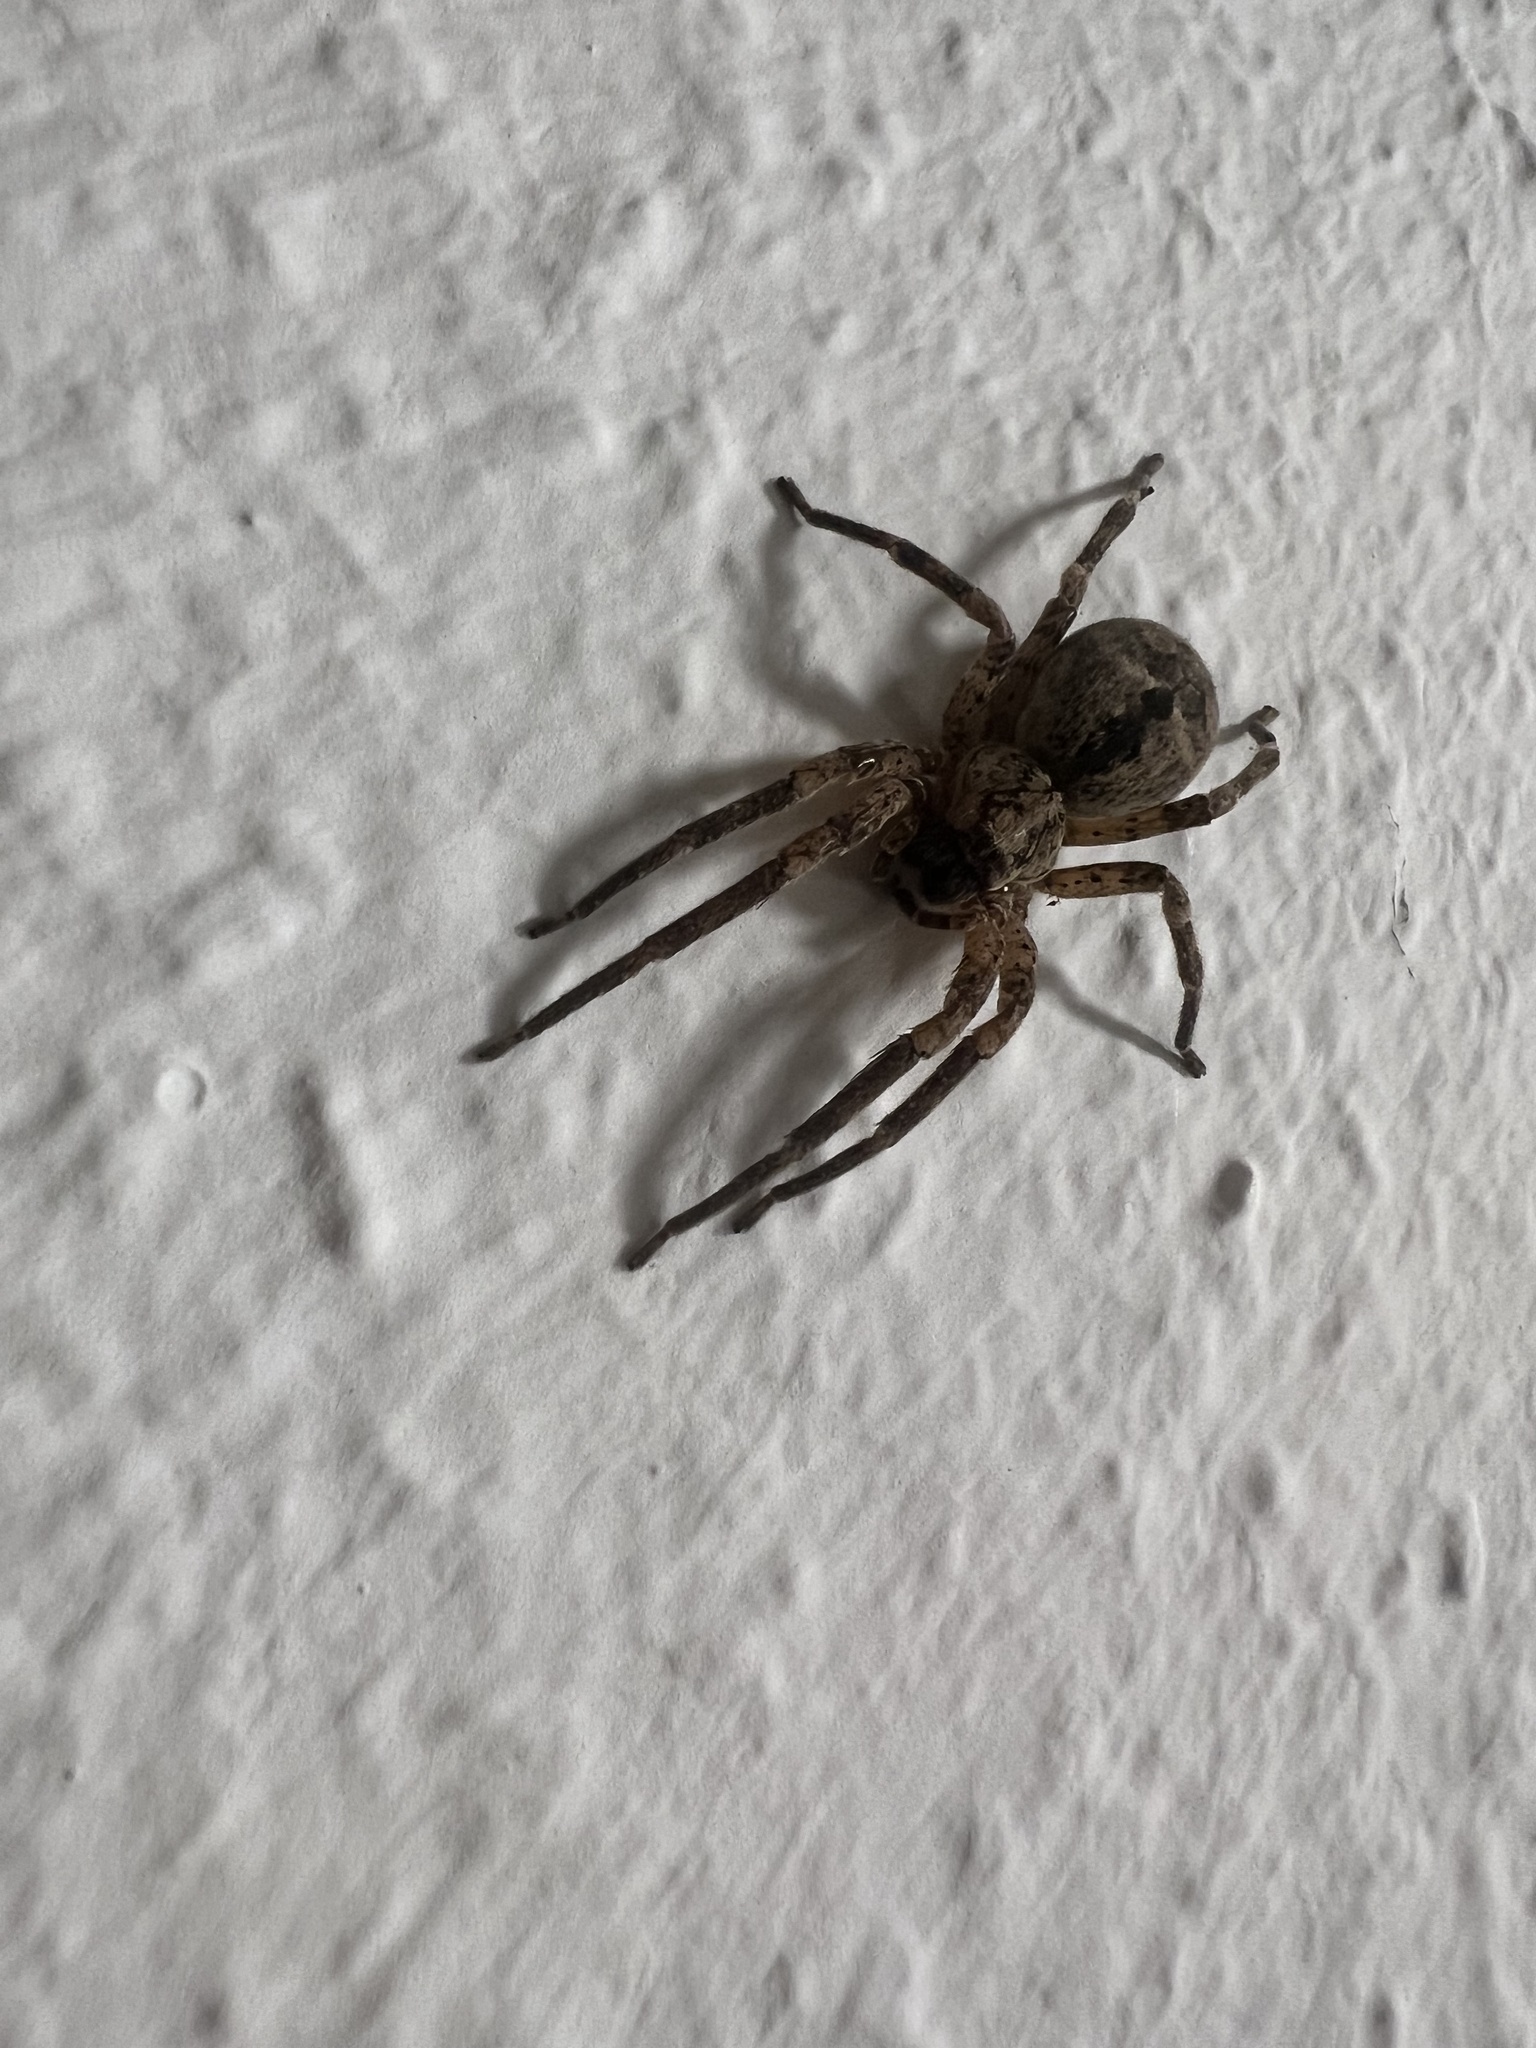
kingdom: Animalia
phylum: Arthropoda
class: Arachnida
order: Araneae
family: Zoropsidae
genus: Zoropsis
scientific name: Zoropsis spinimana
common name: Zoropsid spider
